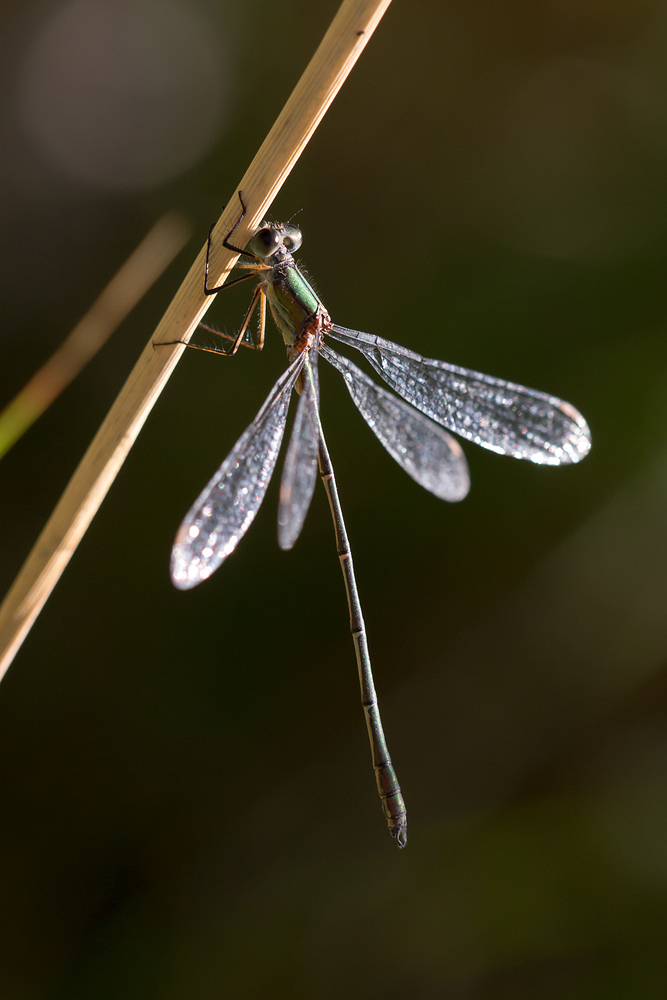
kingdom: Animalia
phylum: Arthropoda
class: Insecta
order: Odonata
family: Lestidae
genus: Chalcolestes
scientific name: Chalcolestes viridis
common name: Green emerald damselfly
